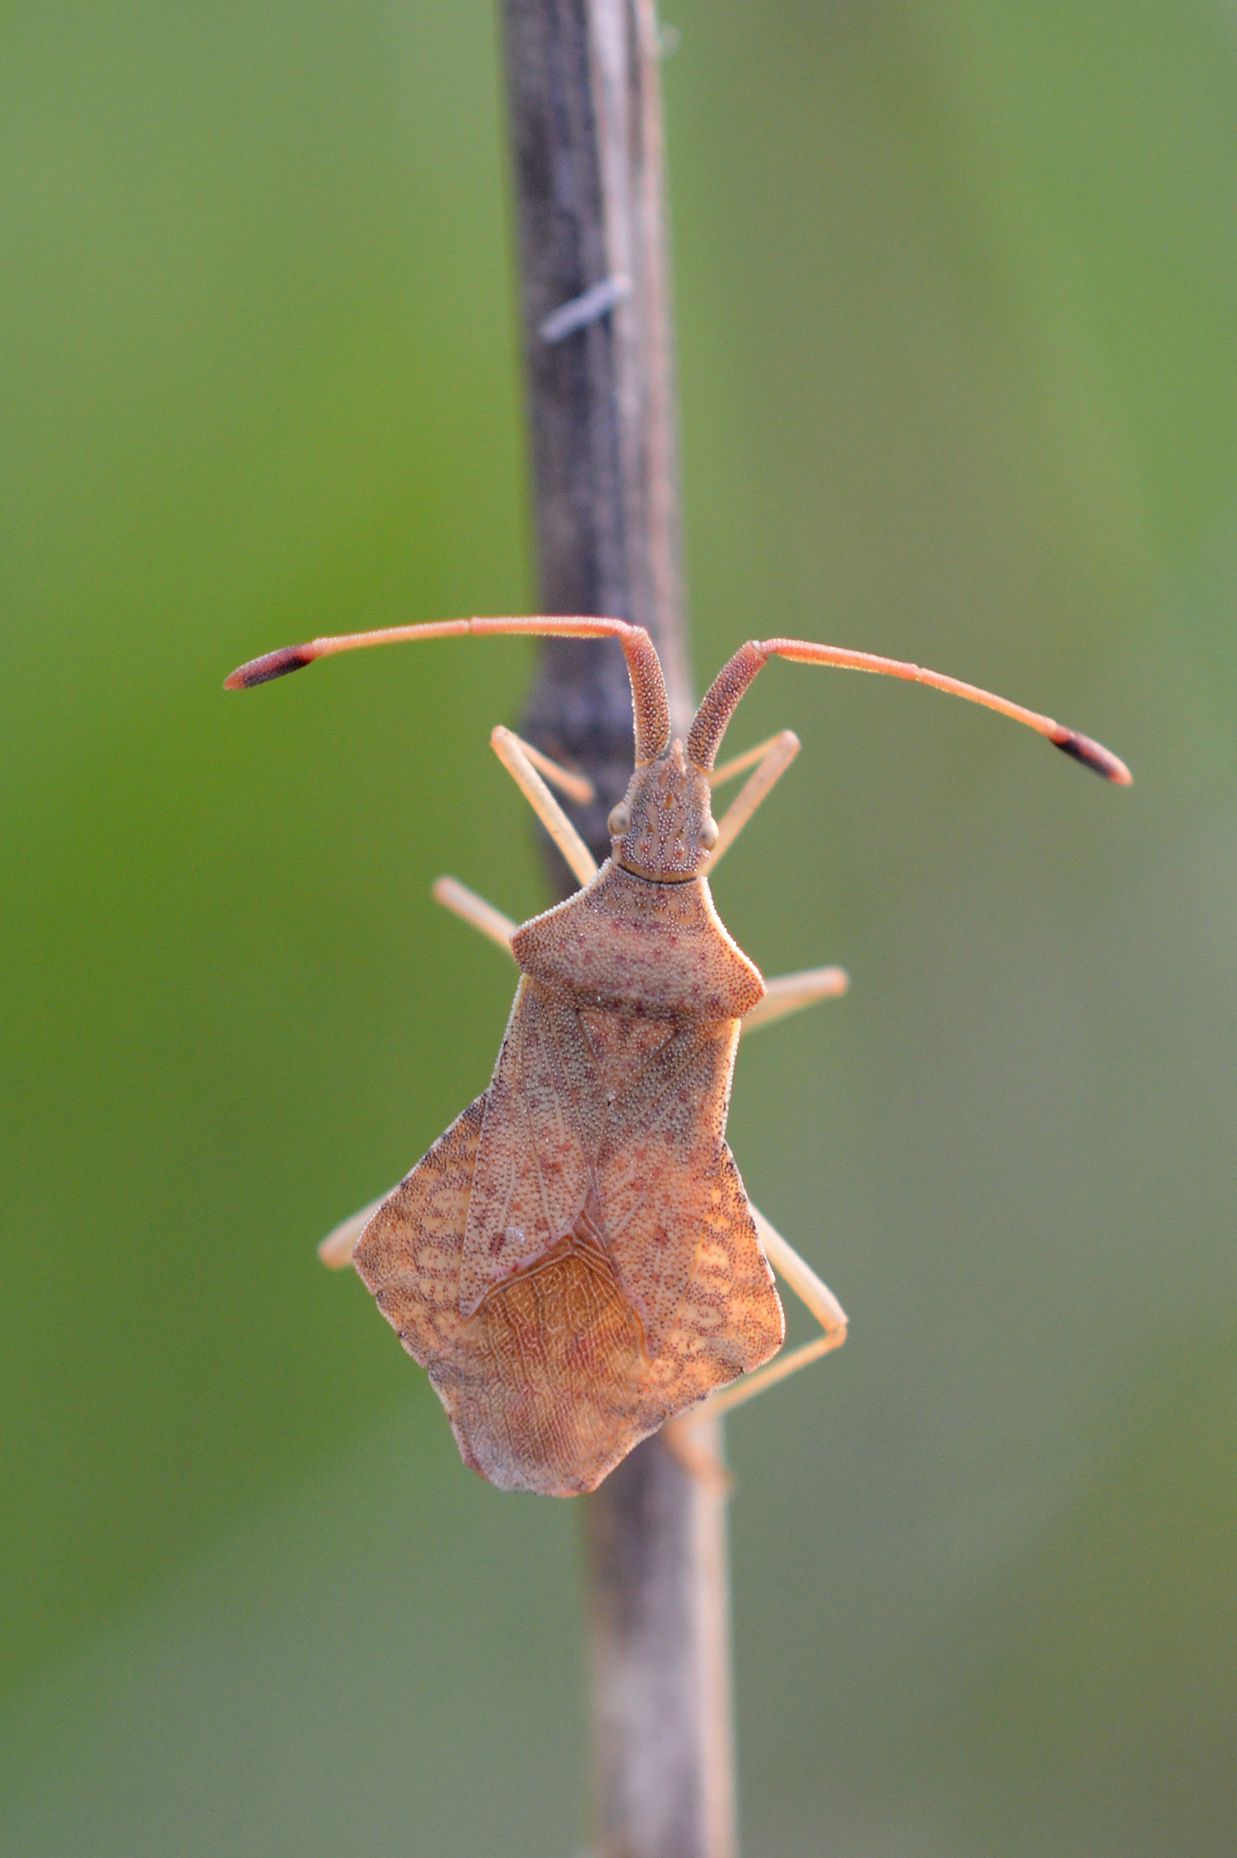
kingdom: Animalia
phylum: Arthropoda
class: Insecta
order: Hemiptera
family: Coreidae
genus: Syromastus
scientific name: Syromastus rhombeus
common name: Rhombic leatherbug
